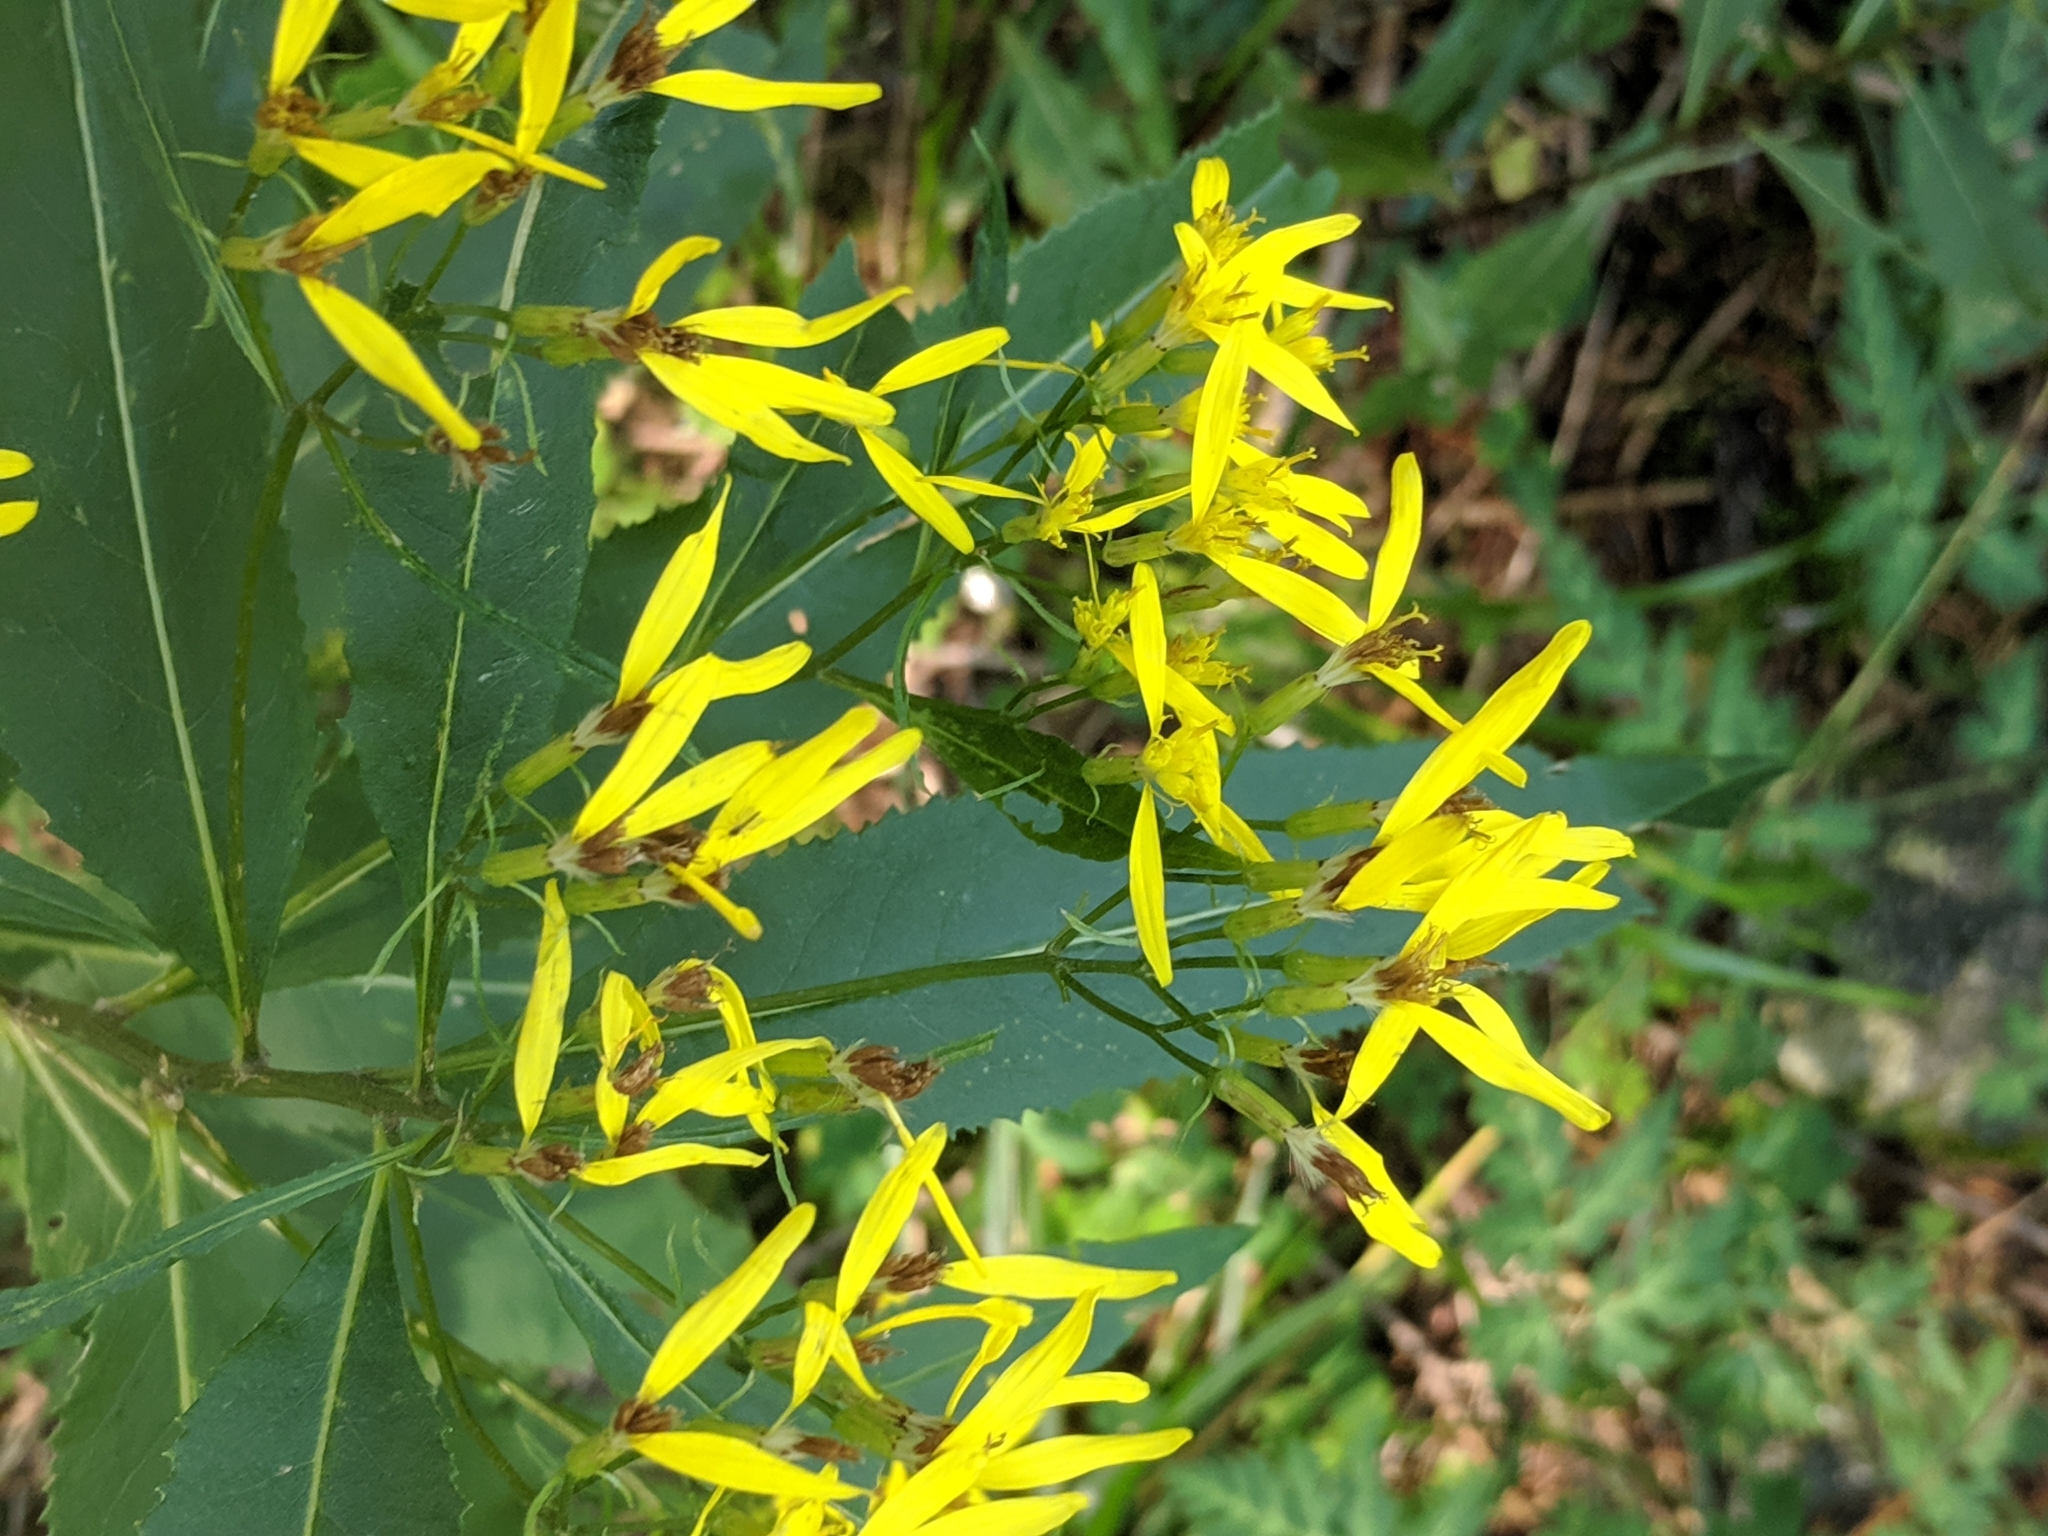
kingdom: Plantae
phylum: Tracheophyta
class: Magnoliopsida
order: Asterales
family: Asteraceae
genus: Senecio
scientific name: Senecio ovatus
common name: Wood ragwort
